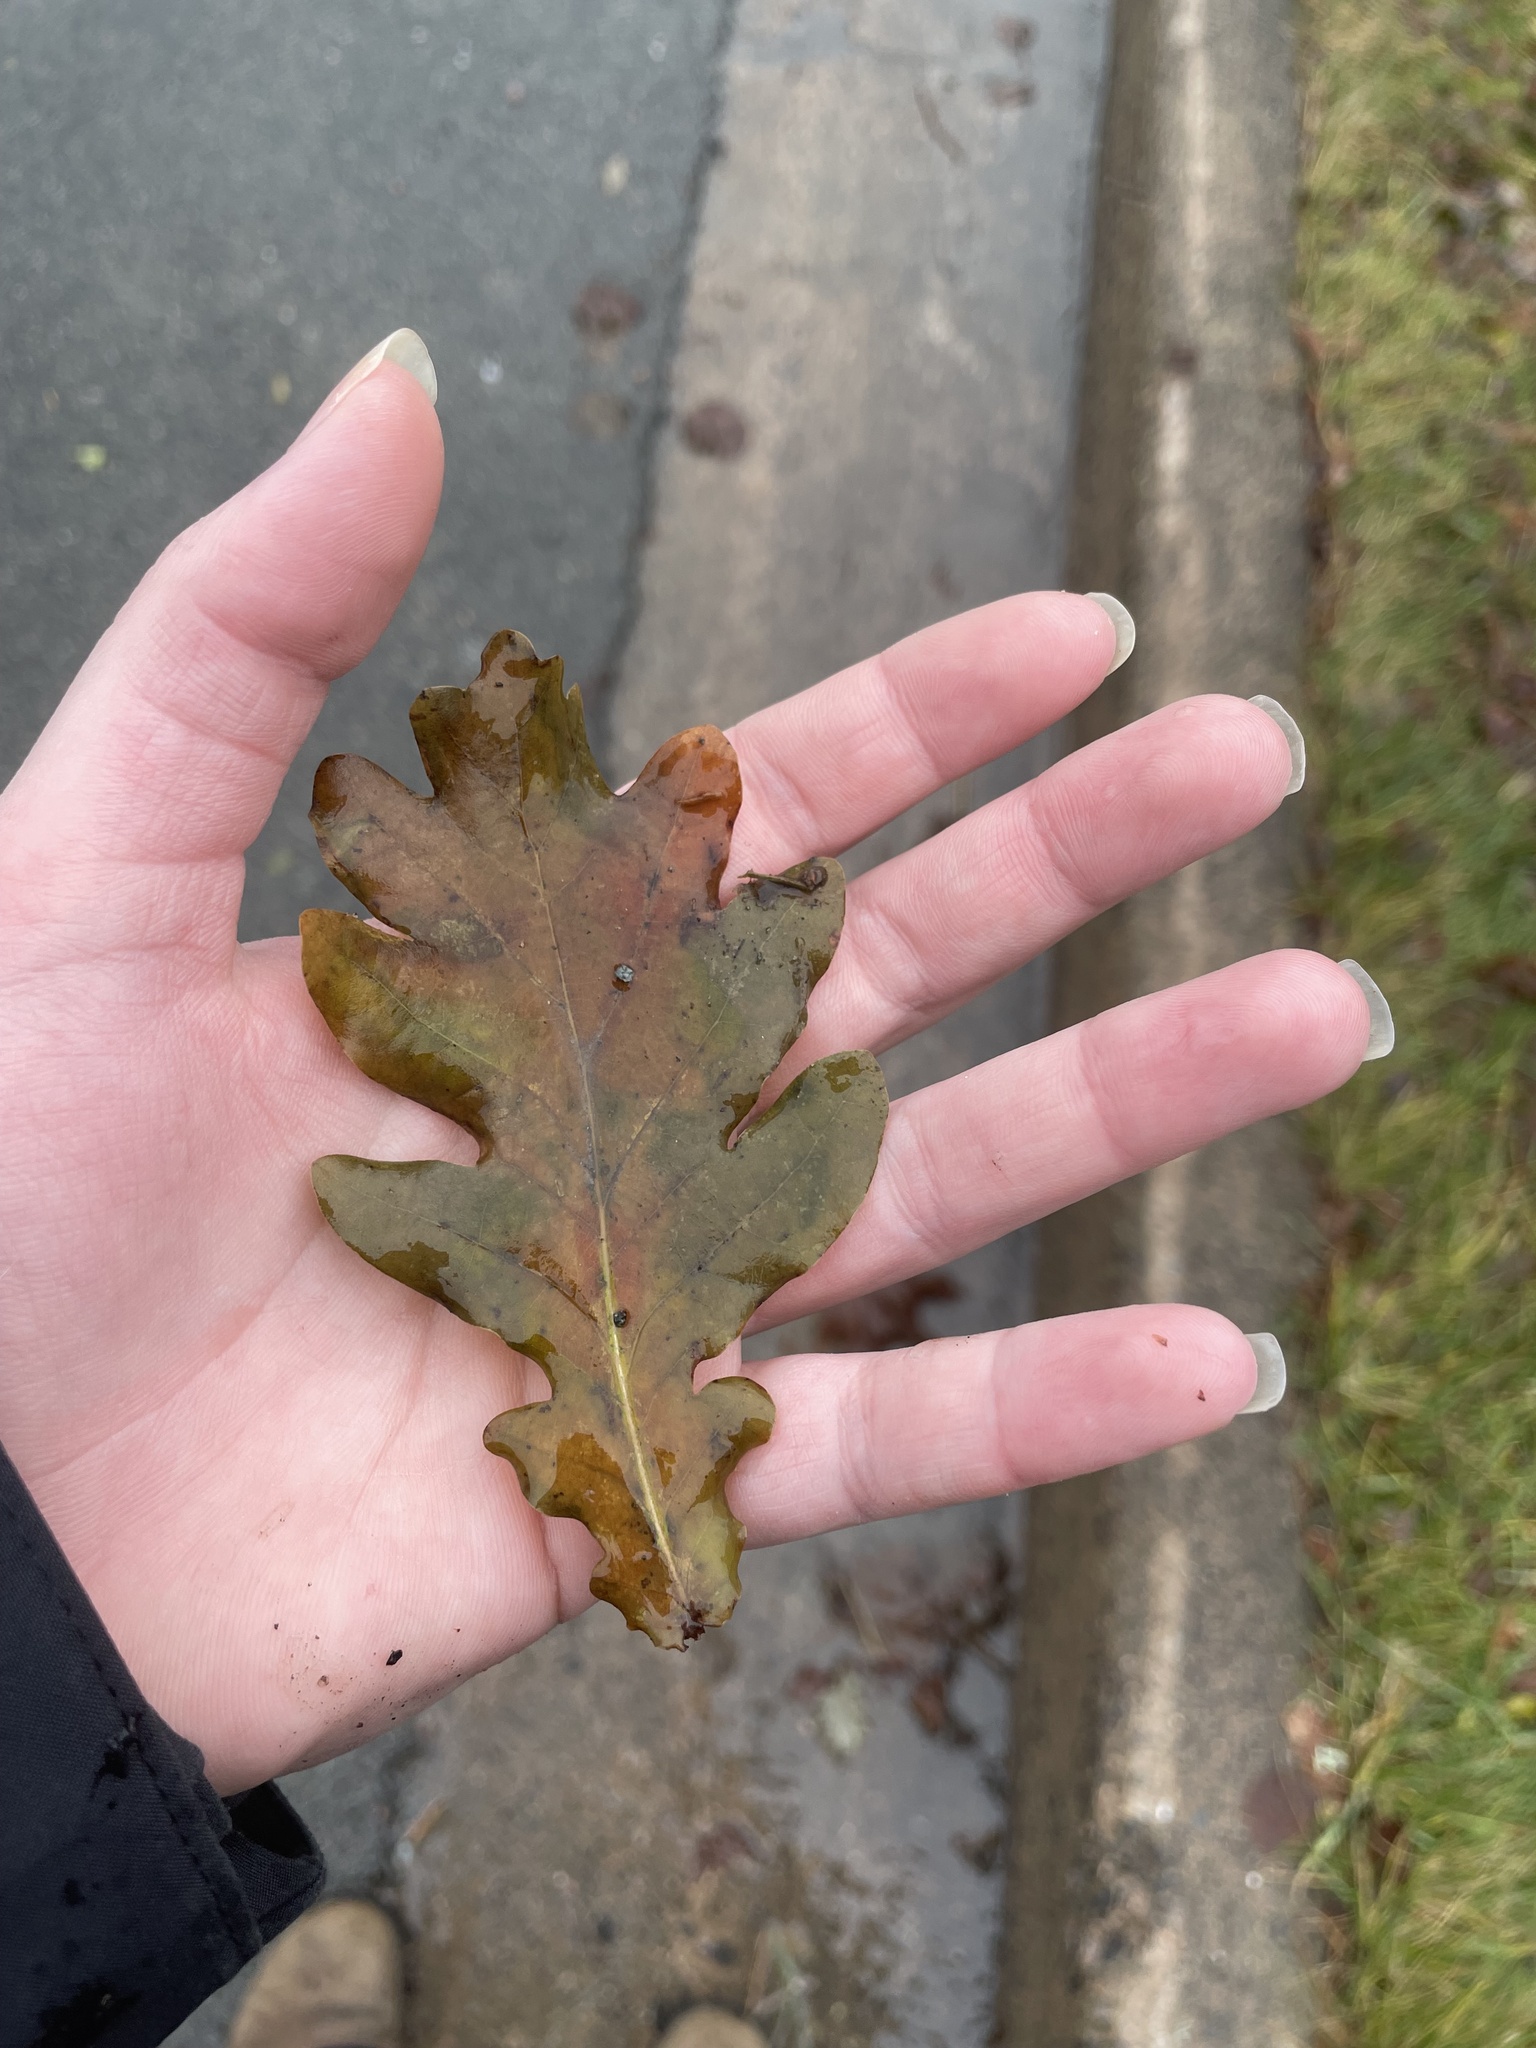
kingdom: Plantae
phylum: Tracheophyta
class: Magnoliopsida
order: Fagales
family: Fagaceae
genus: Quercus
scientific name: Quercus robur
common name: Pedunculate oak
